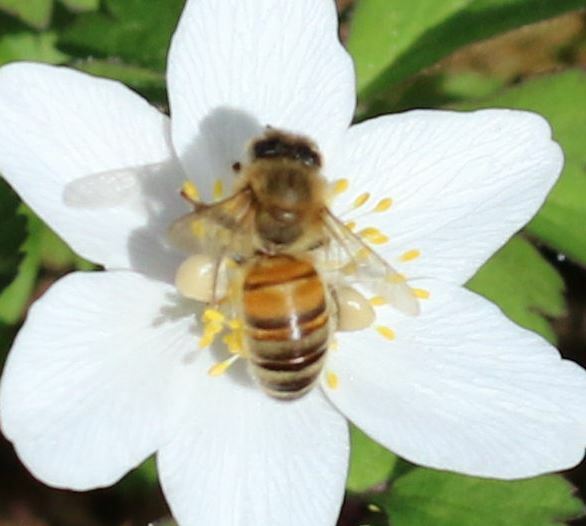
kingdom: Animalia
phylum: Arthropoda
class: Insecta
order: Hymenoptera
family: Apidae
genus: Apis
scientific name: Apis mellifera
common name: Honey bee
